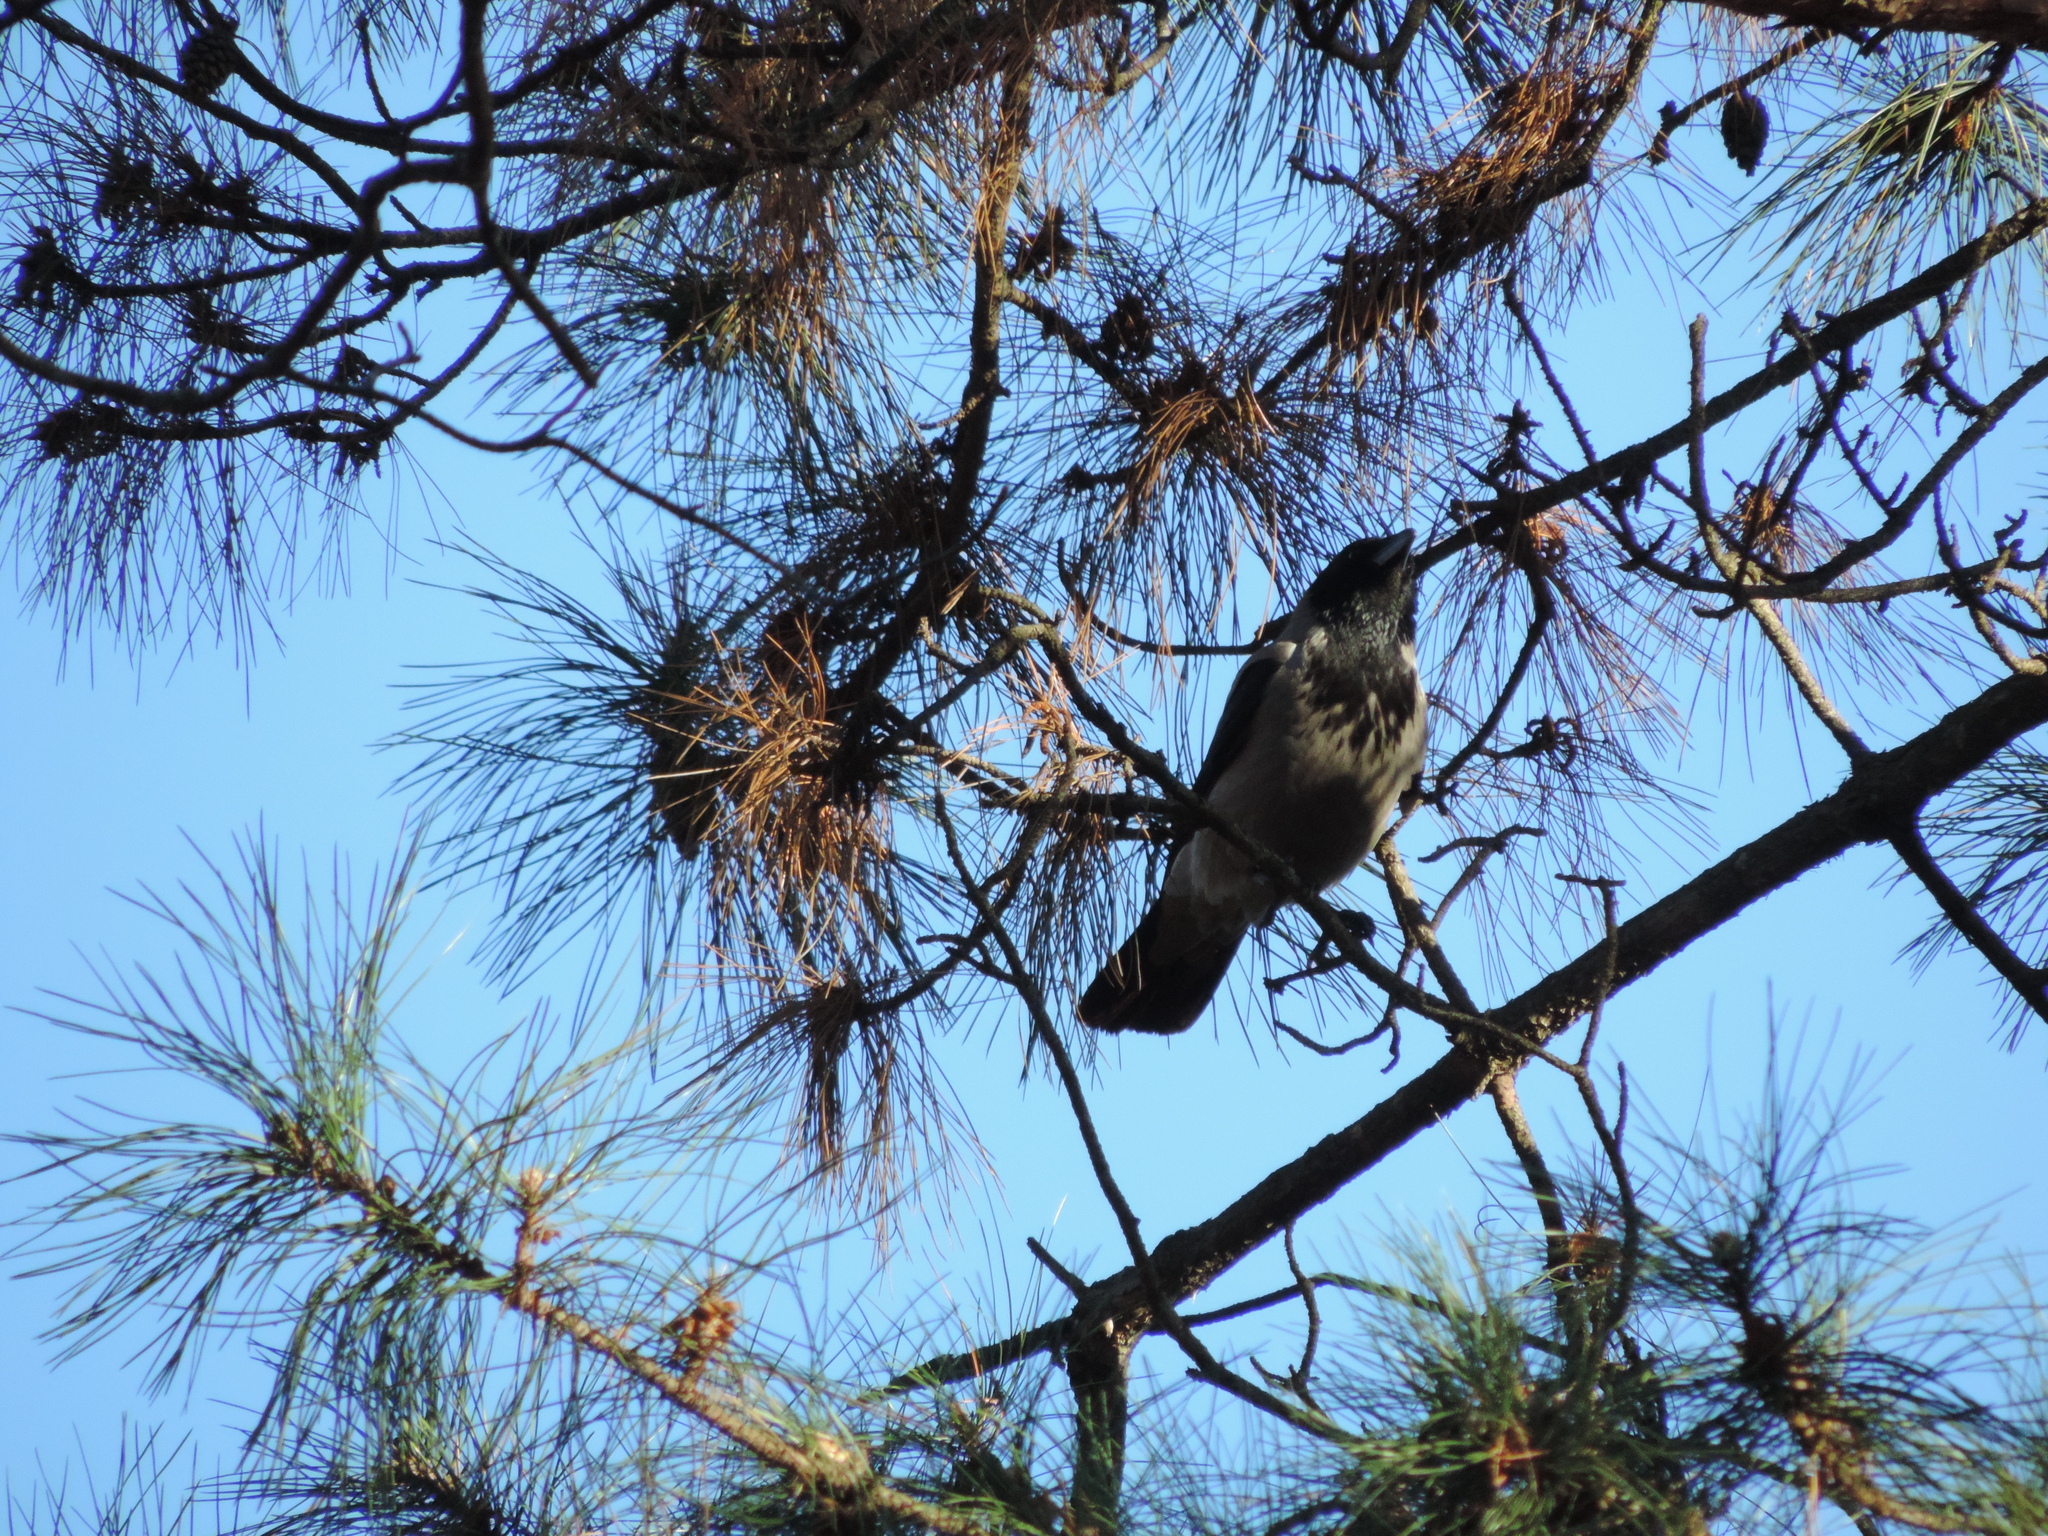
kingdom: Animalia
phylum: Chordata
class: Aves
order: Passeriformes
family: Corvidae
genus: Corvus
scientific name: Corvus cornix
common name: Hooded crow
